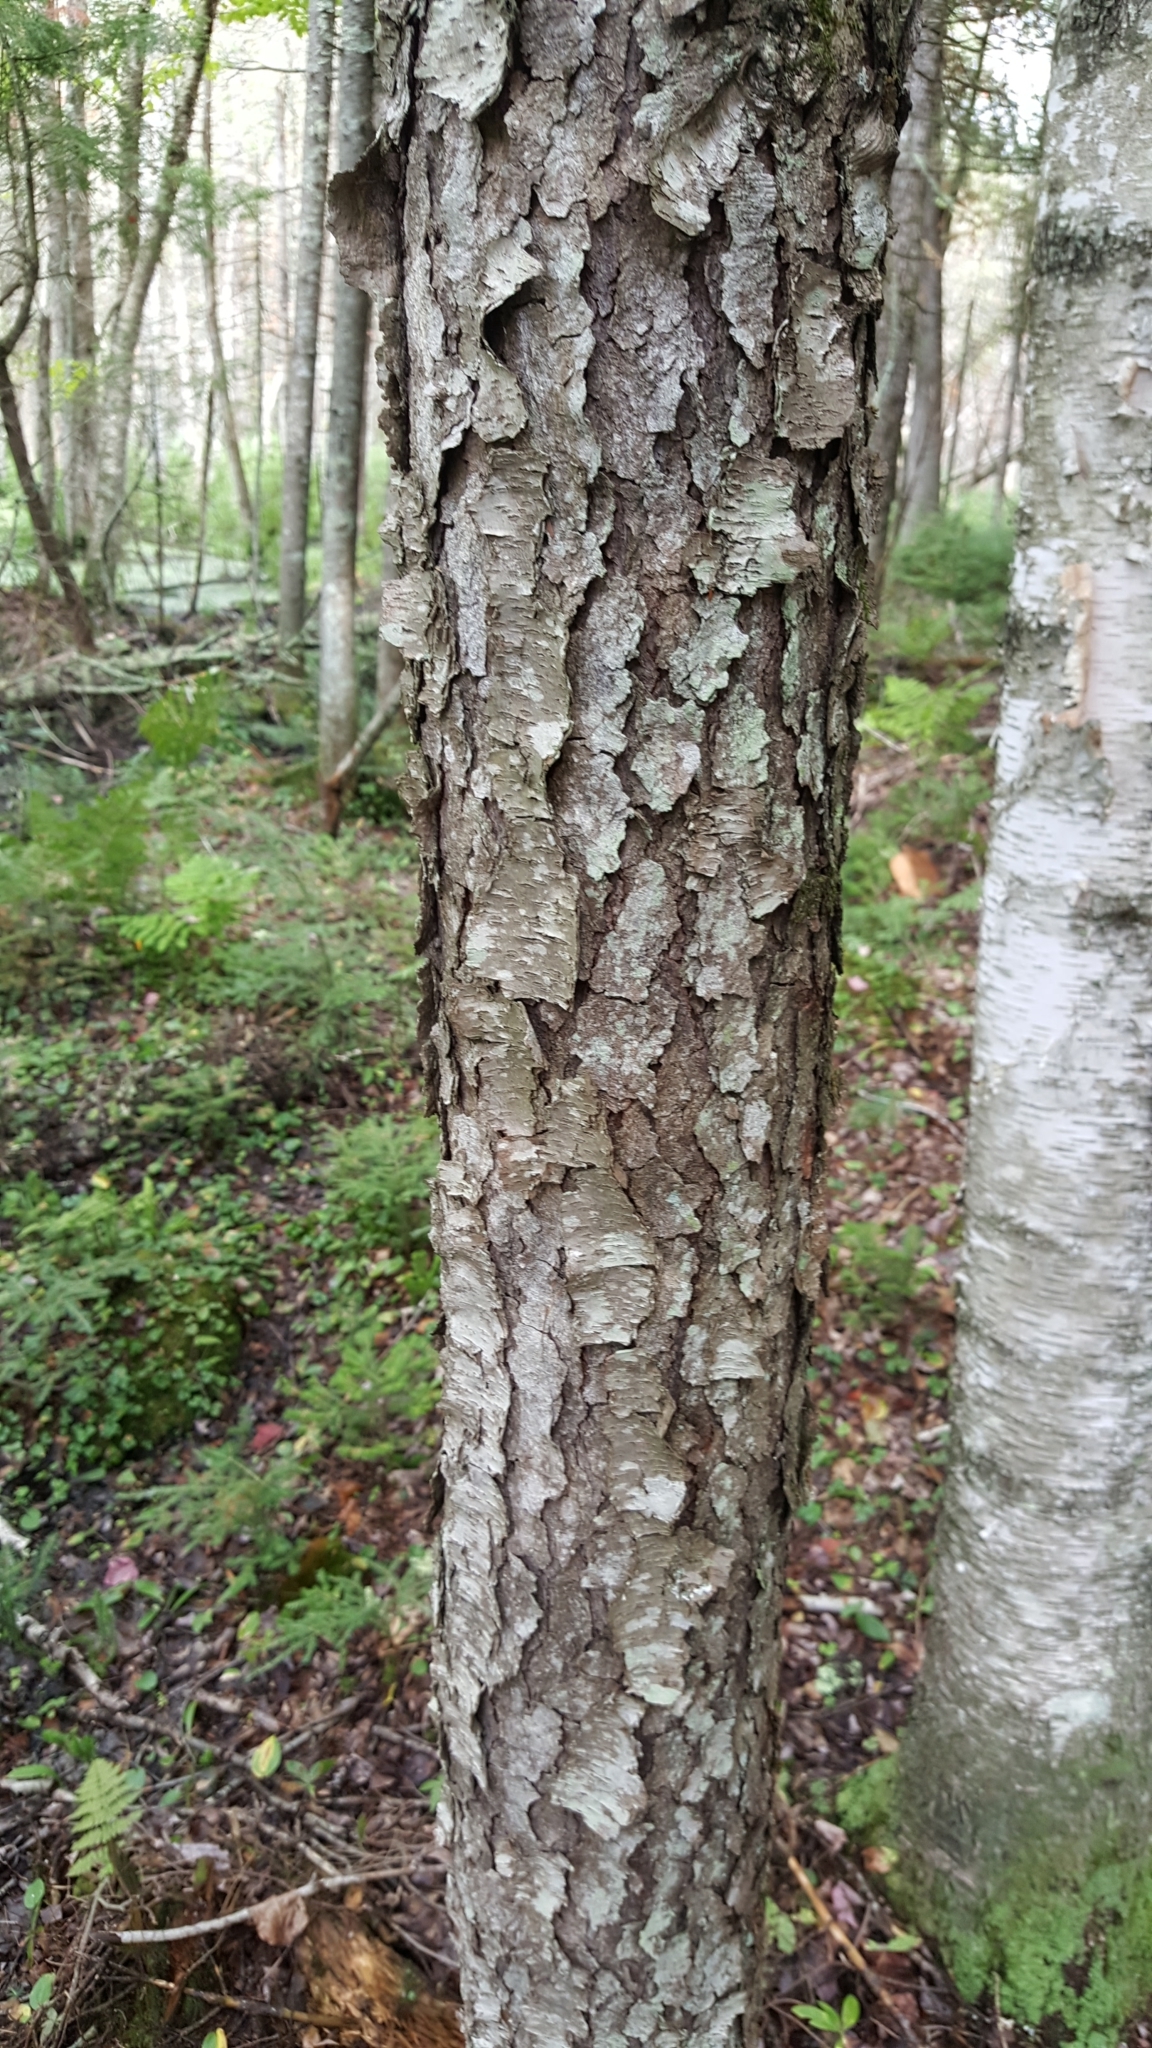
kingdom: Plantae
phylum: Tracheophyta
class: Magnoliopsida
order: Rosales
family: Rosaceae
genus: Prunus
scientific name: Prunus serotina
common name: Black cherry
